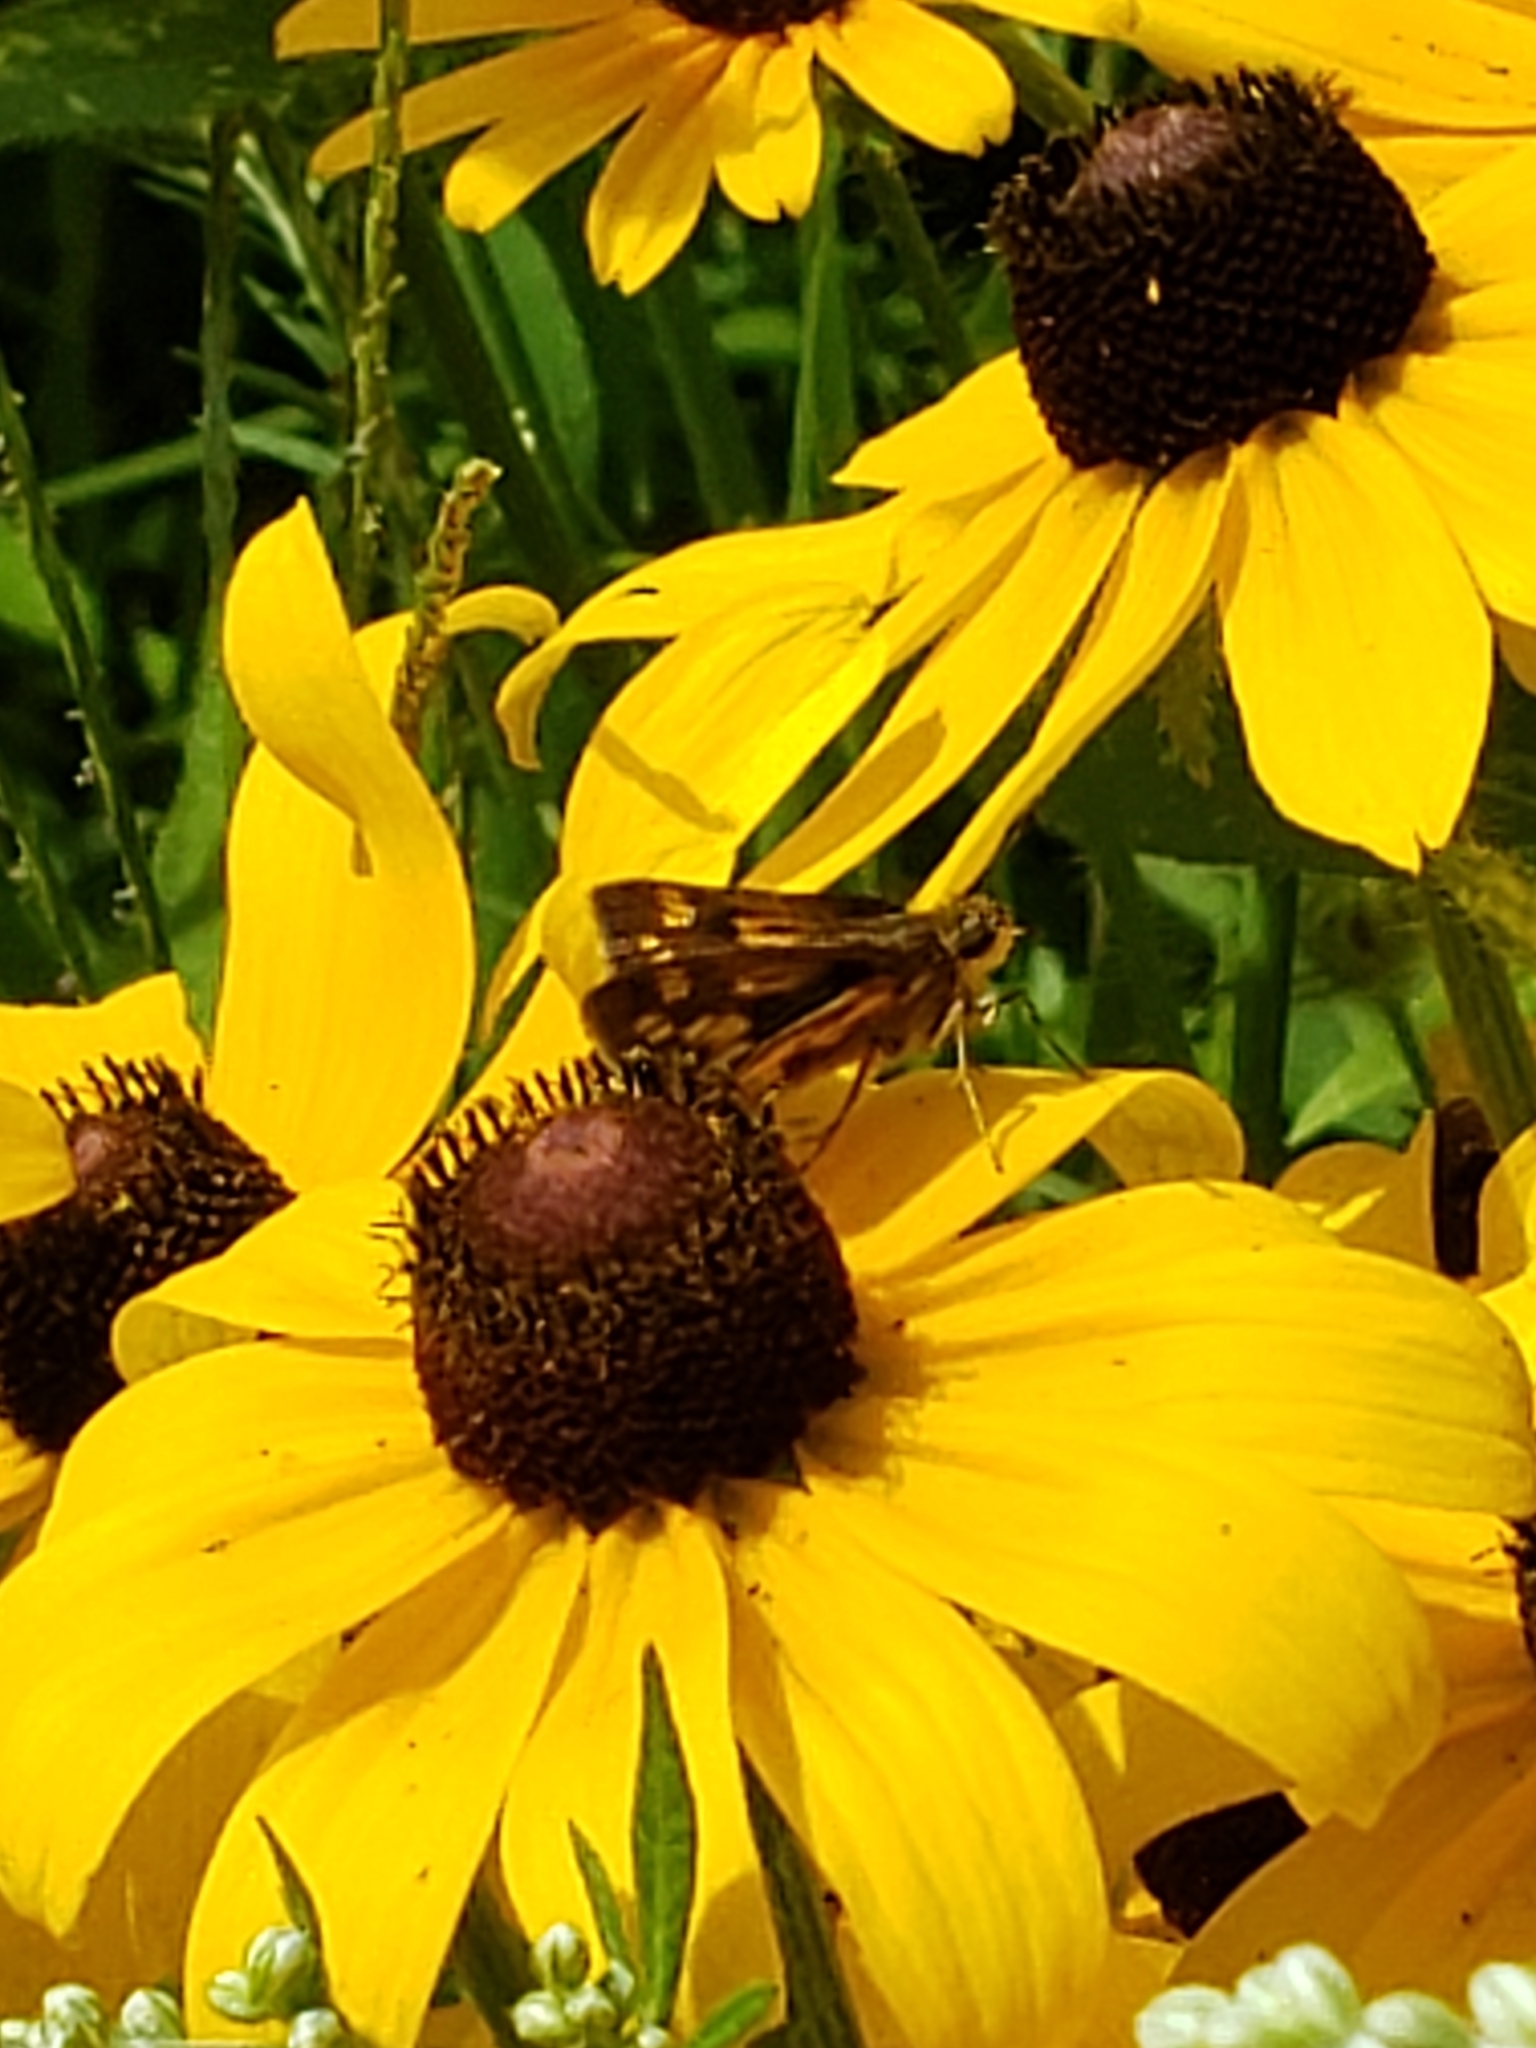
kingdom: Animalia
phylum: Arthropoda
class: Insecta
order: Lepidoptera
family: Hesperiidae
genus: Polites
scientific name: Polites coras
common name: Peck's skipper
